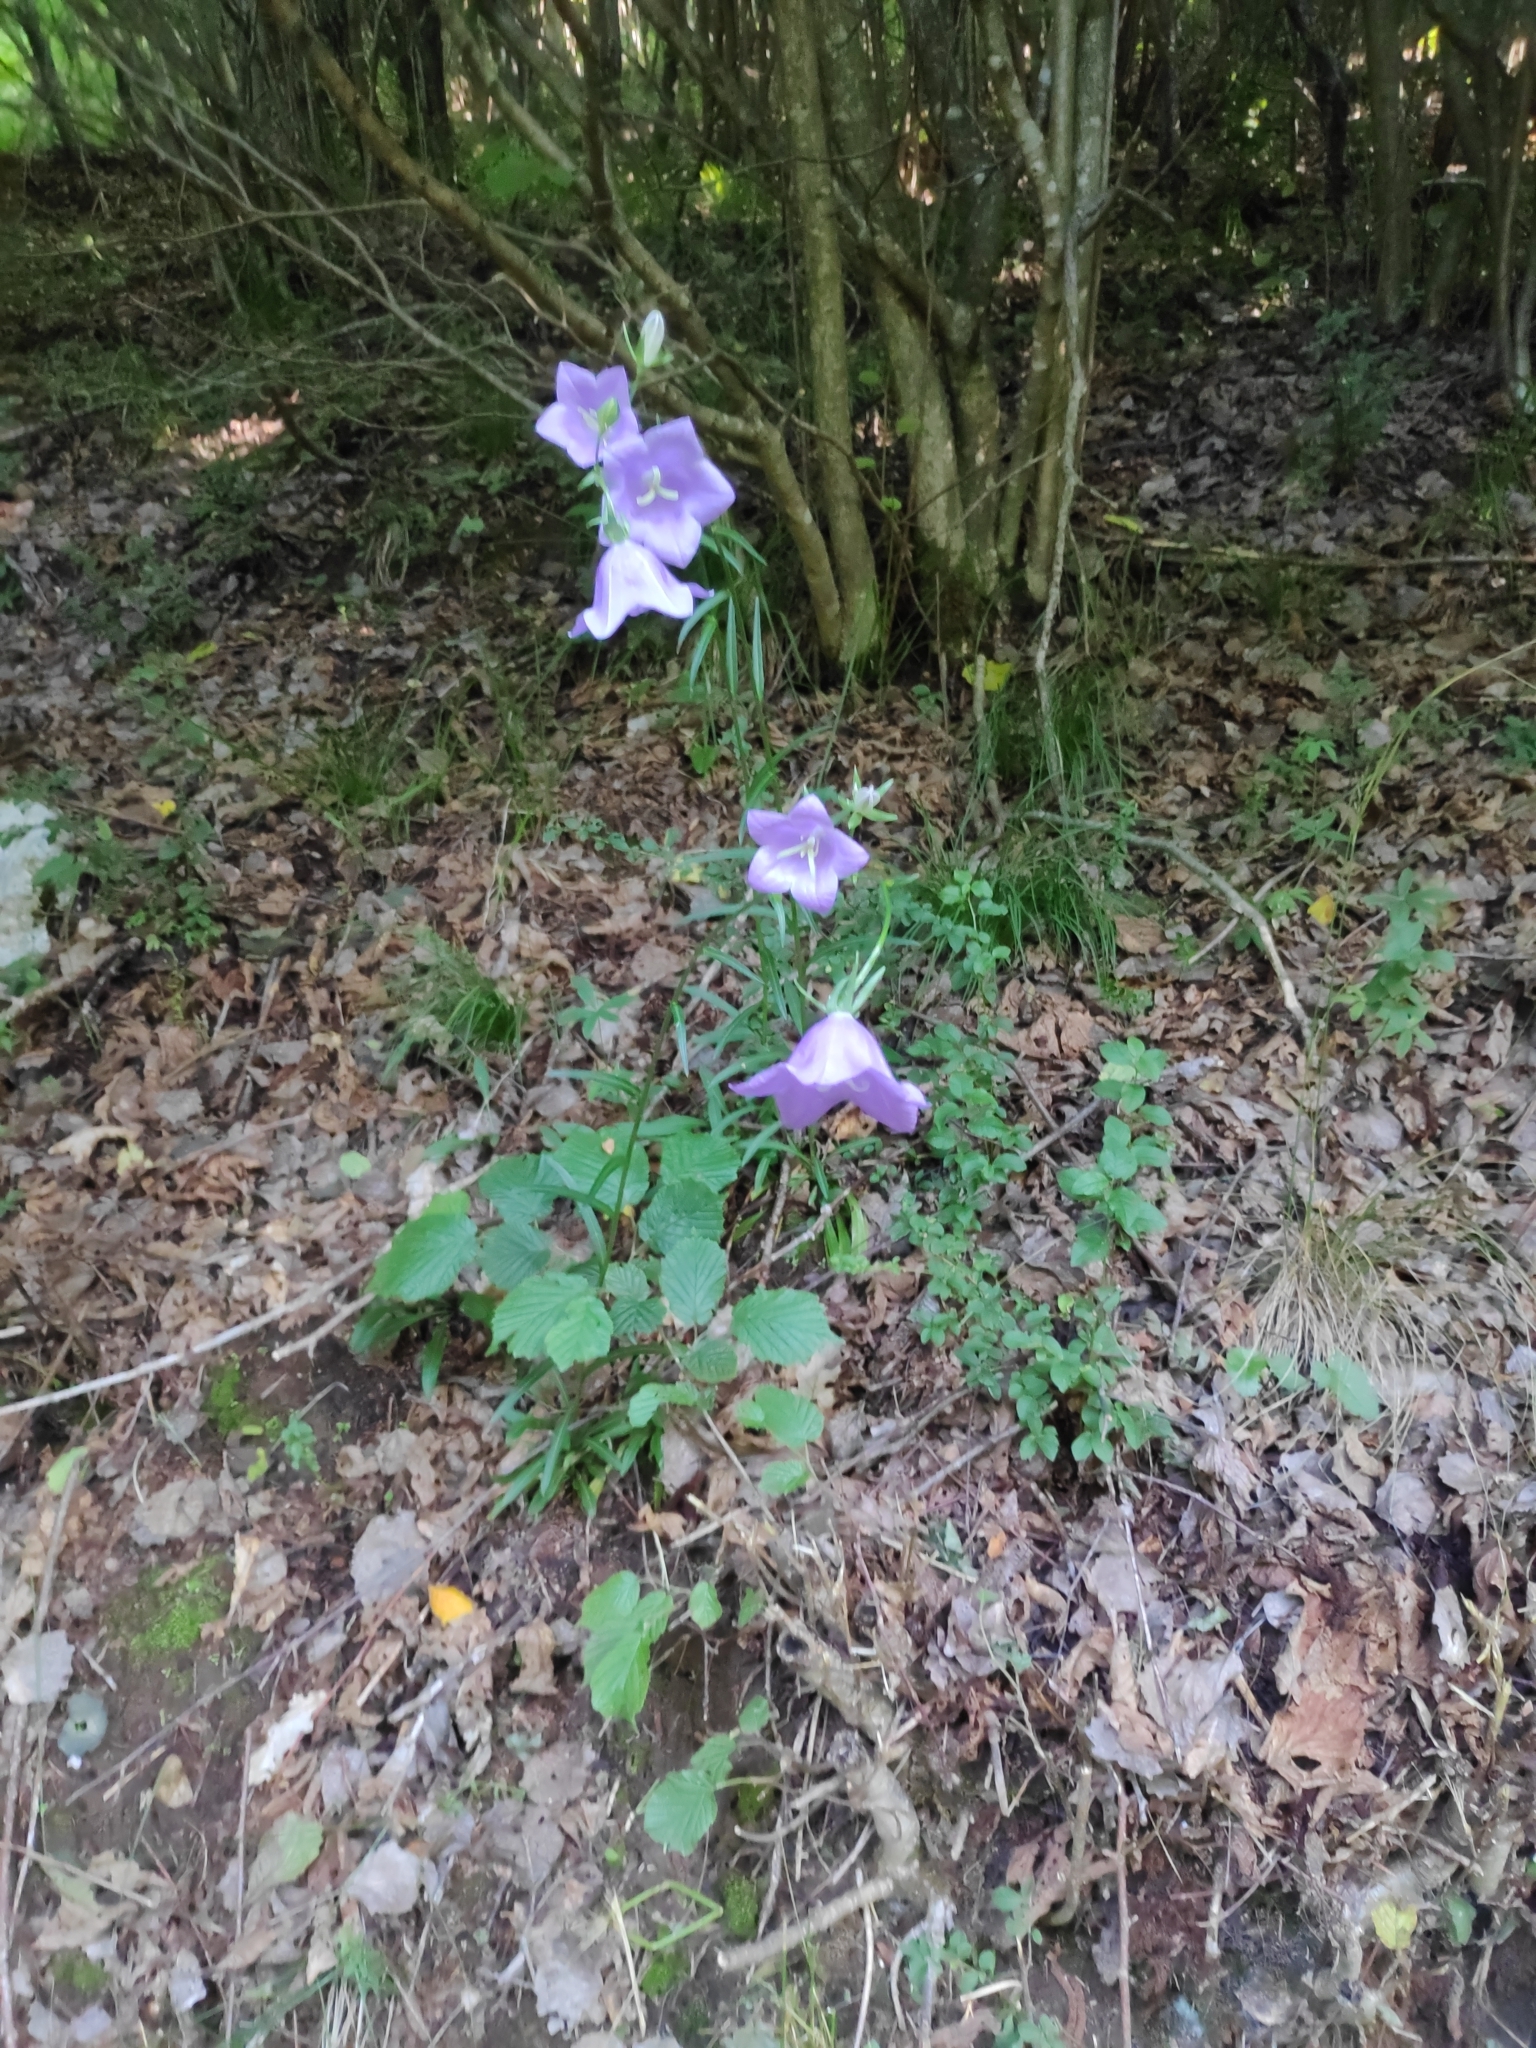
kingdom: Plantae
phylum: Tracheophyta
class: Magnoliopsida
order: Asterales
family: Campanulaceae
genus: Campanula
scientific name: Campanula persicifolia
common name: Peach-leaved bellflower
